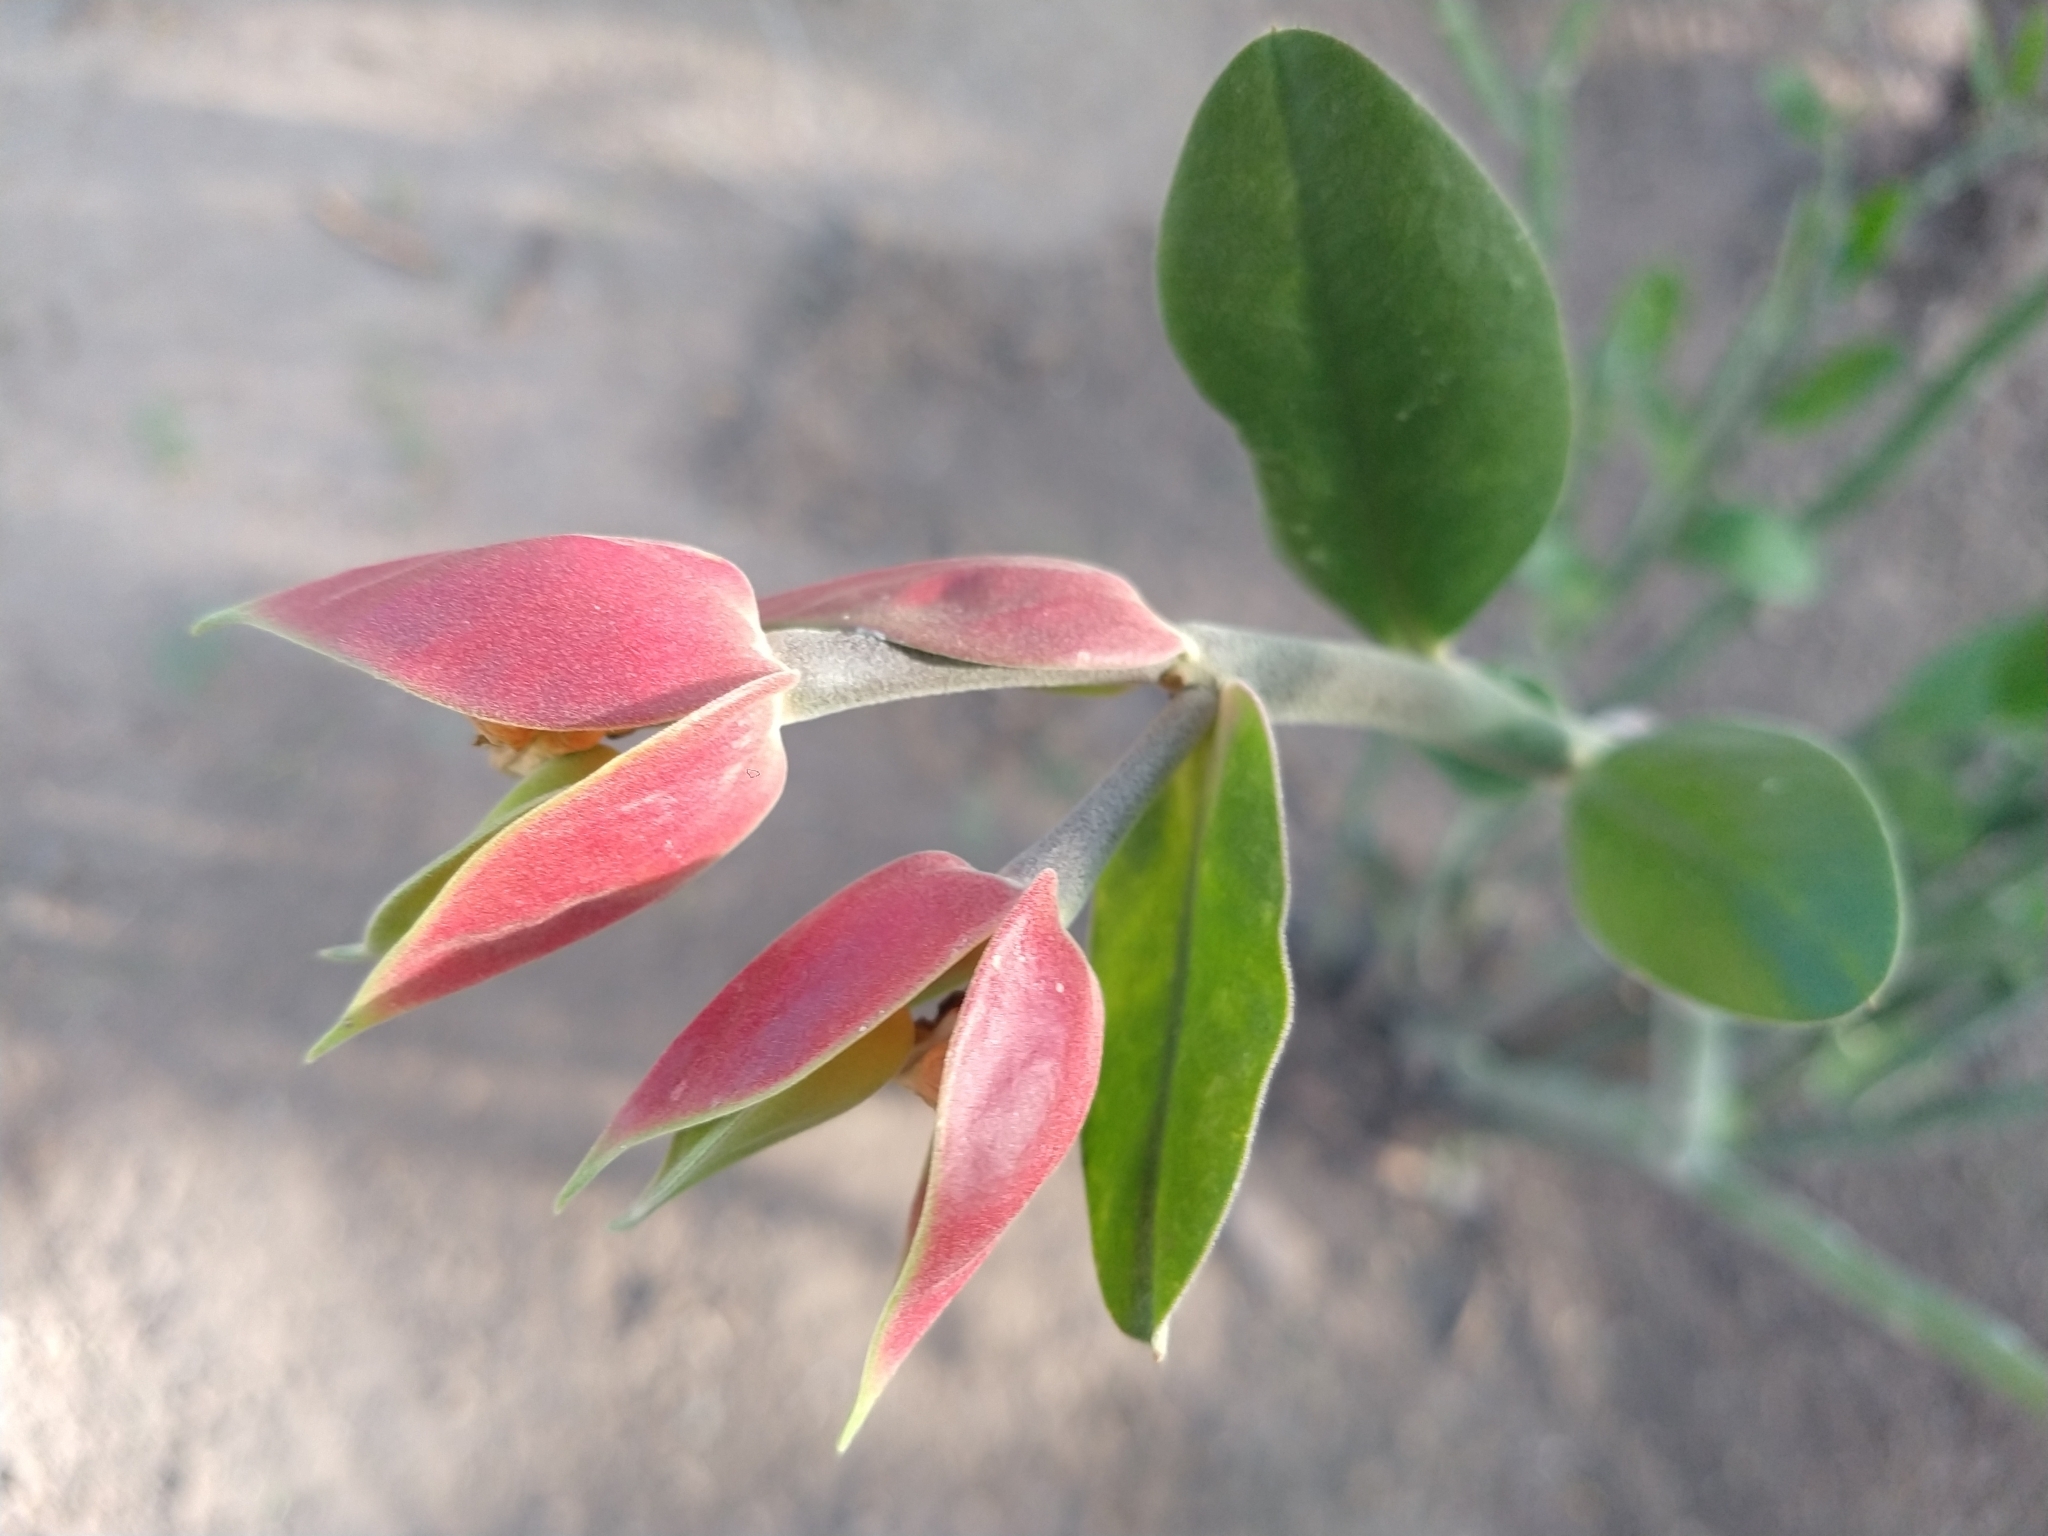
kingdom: Plantae
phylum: Tracheophyta
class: Magnoliopsida
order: Malpighiales
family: Euphorbiaceae
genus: Euphorbia
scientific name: Euphorbia bracteata
